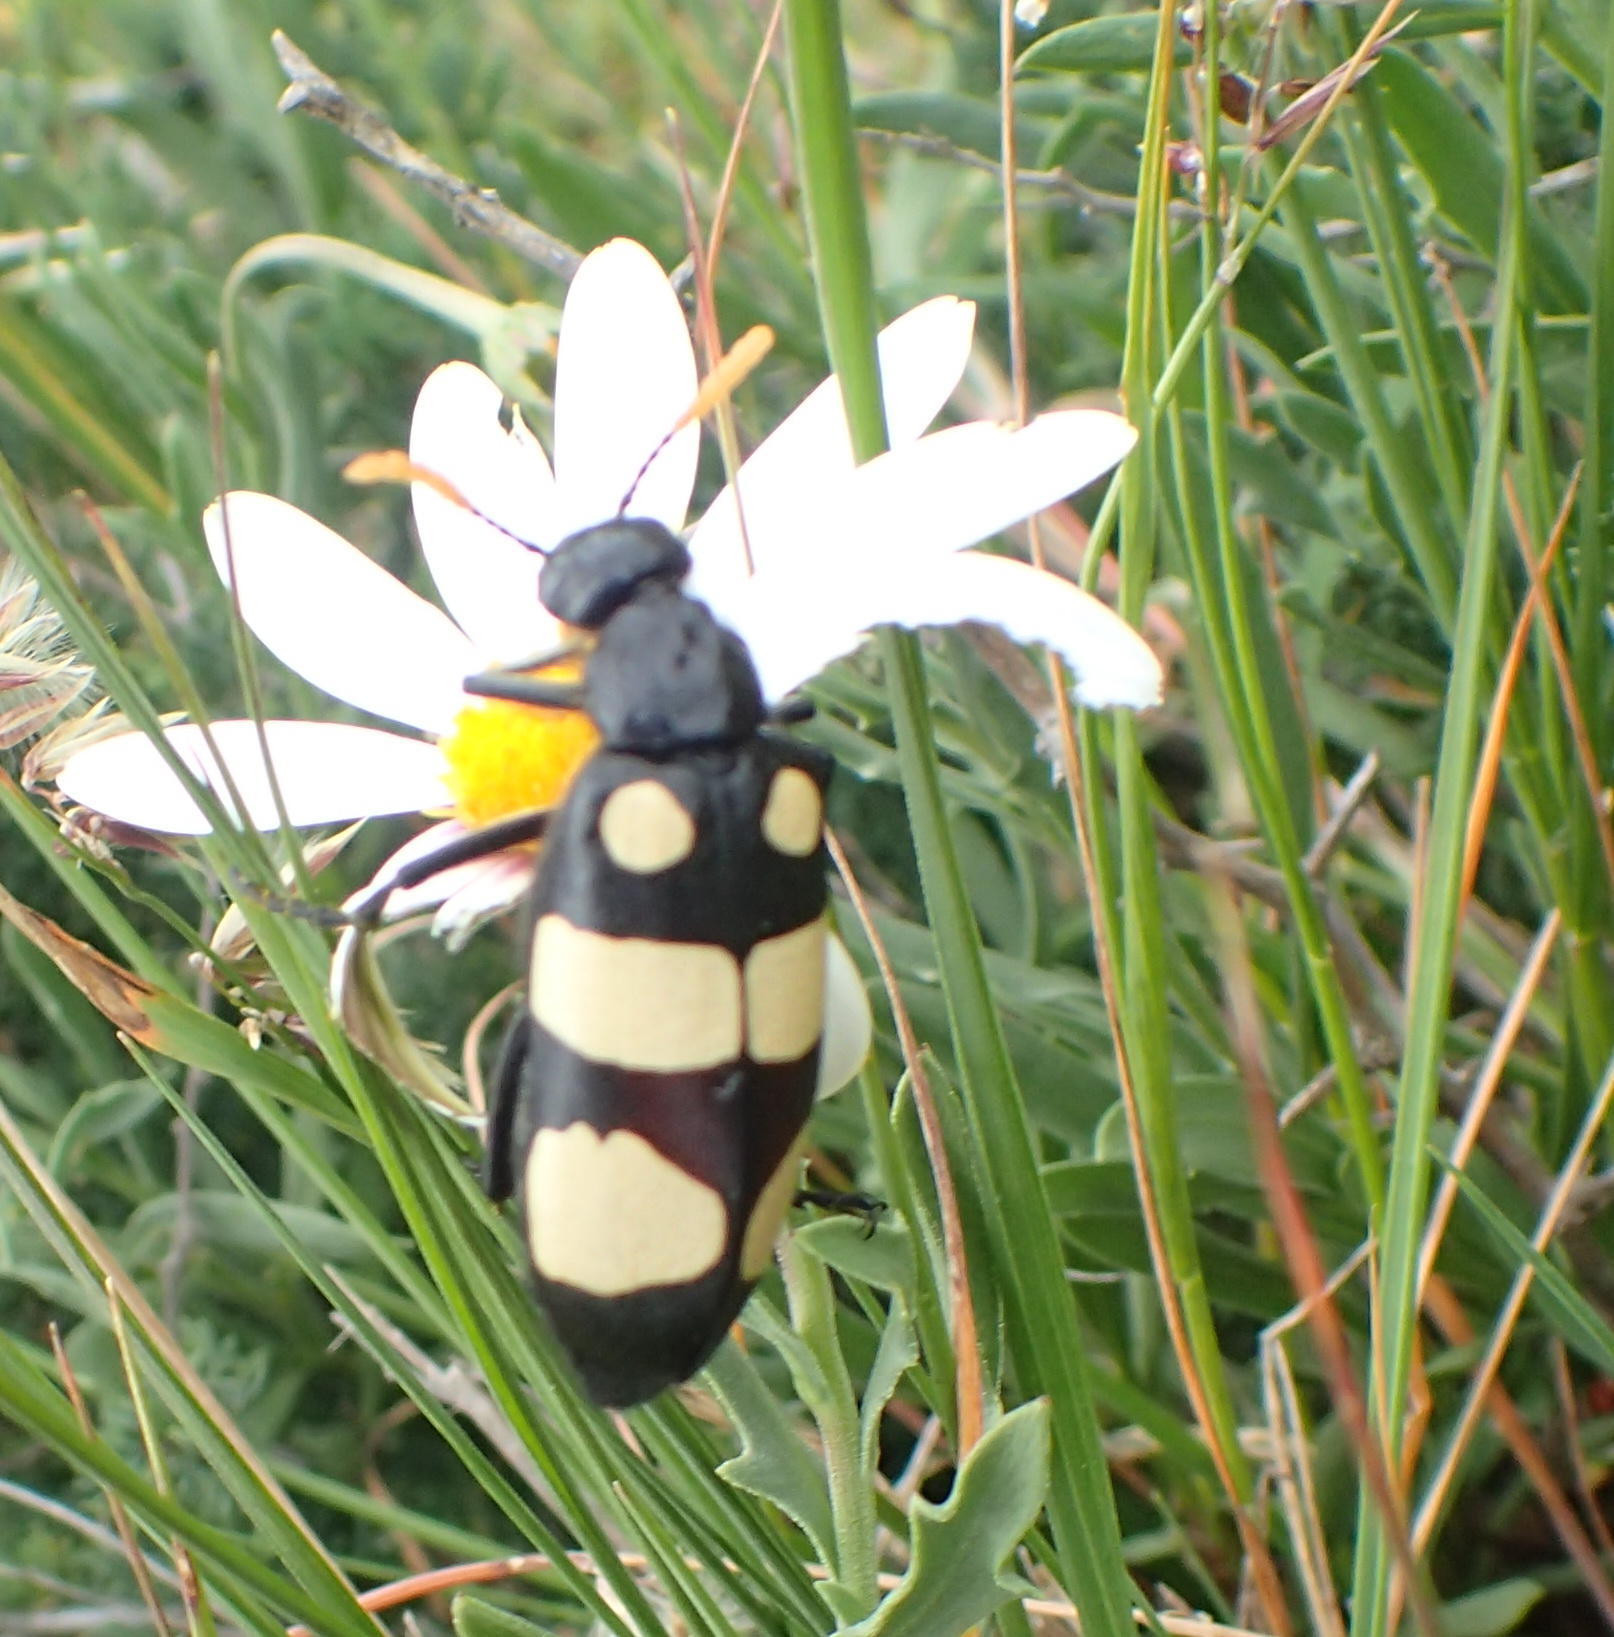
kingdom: Animalia
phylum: Arthropoda
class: Insecta
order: Coleoptera
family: Meloidae
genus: Hycleus
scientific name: Hycleus
